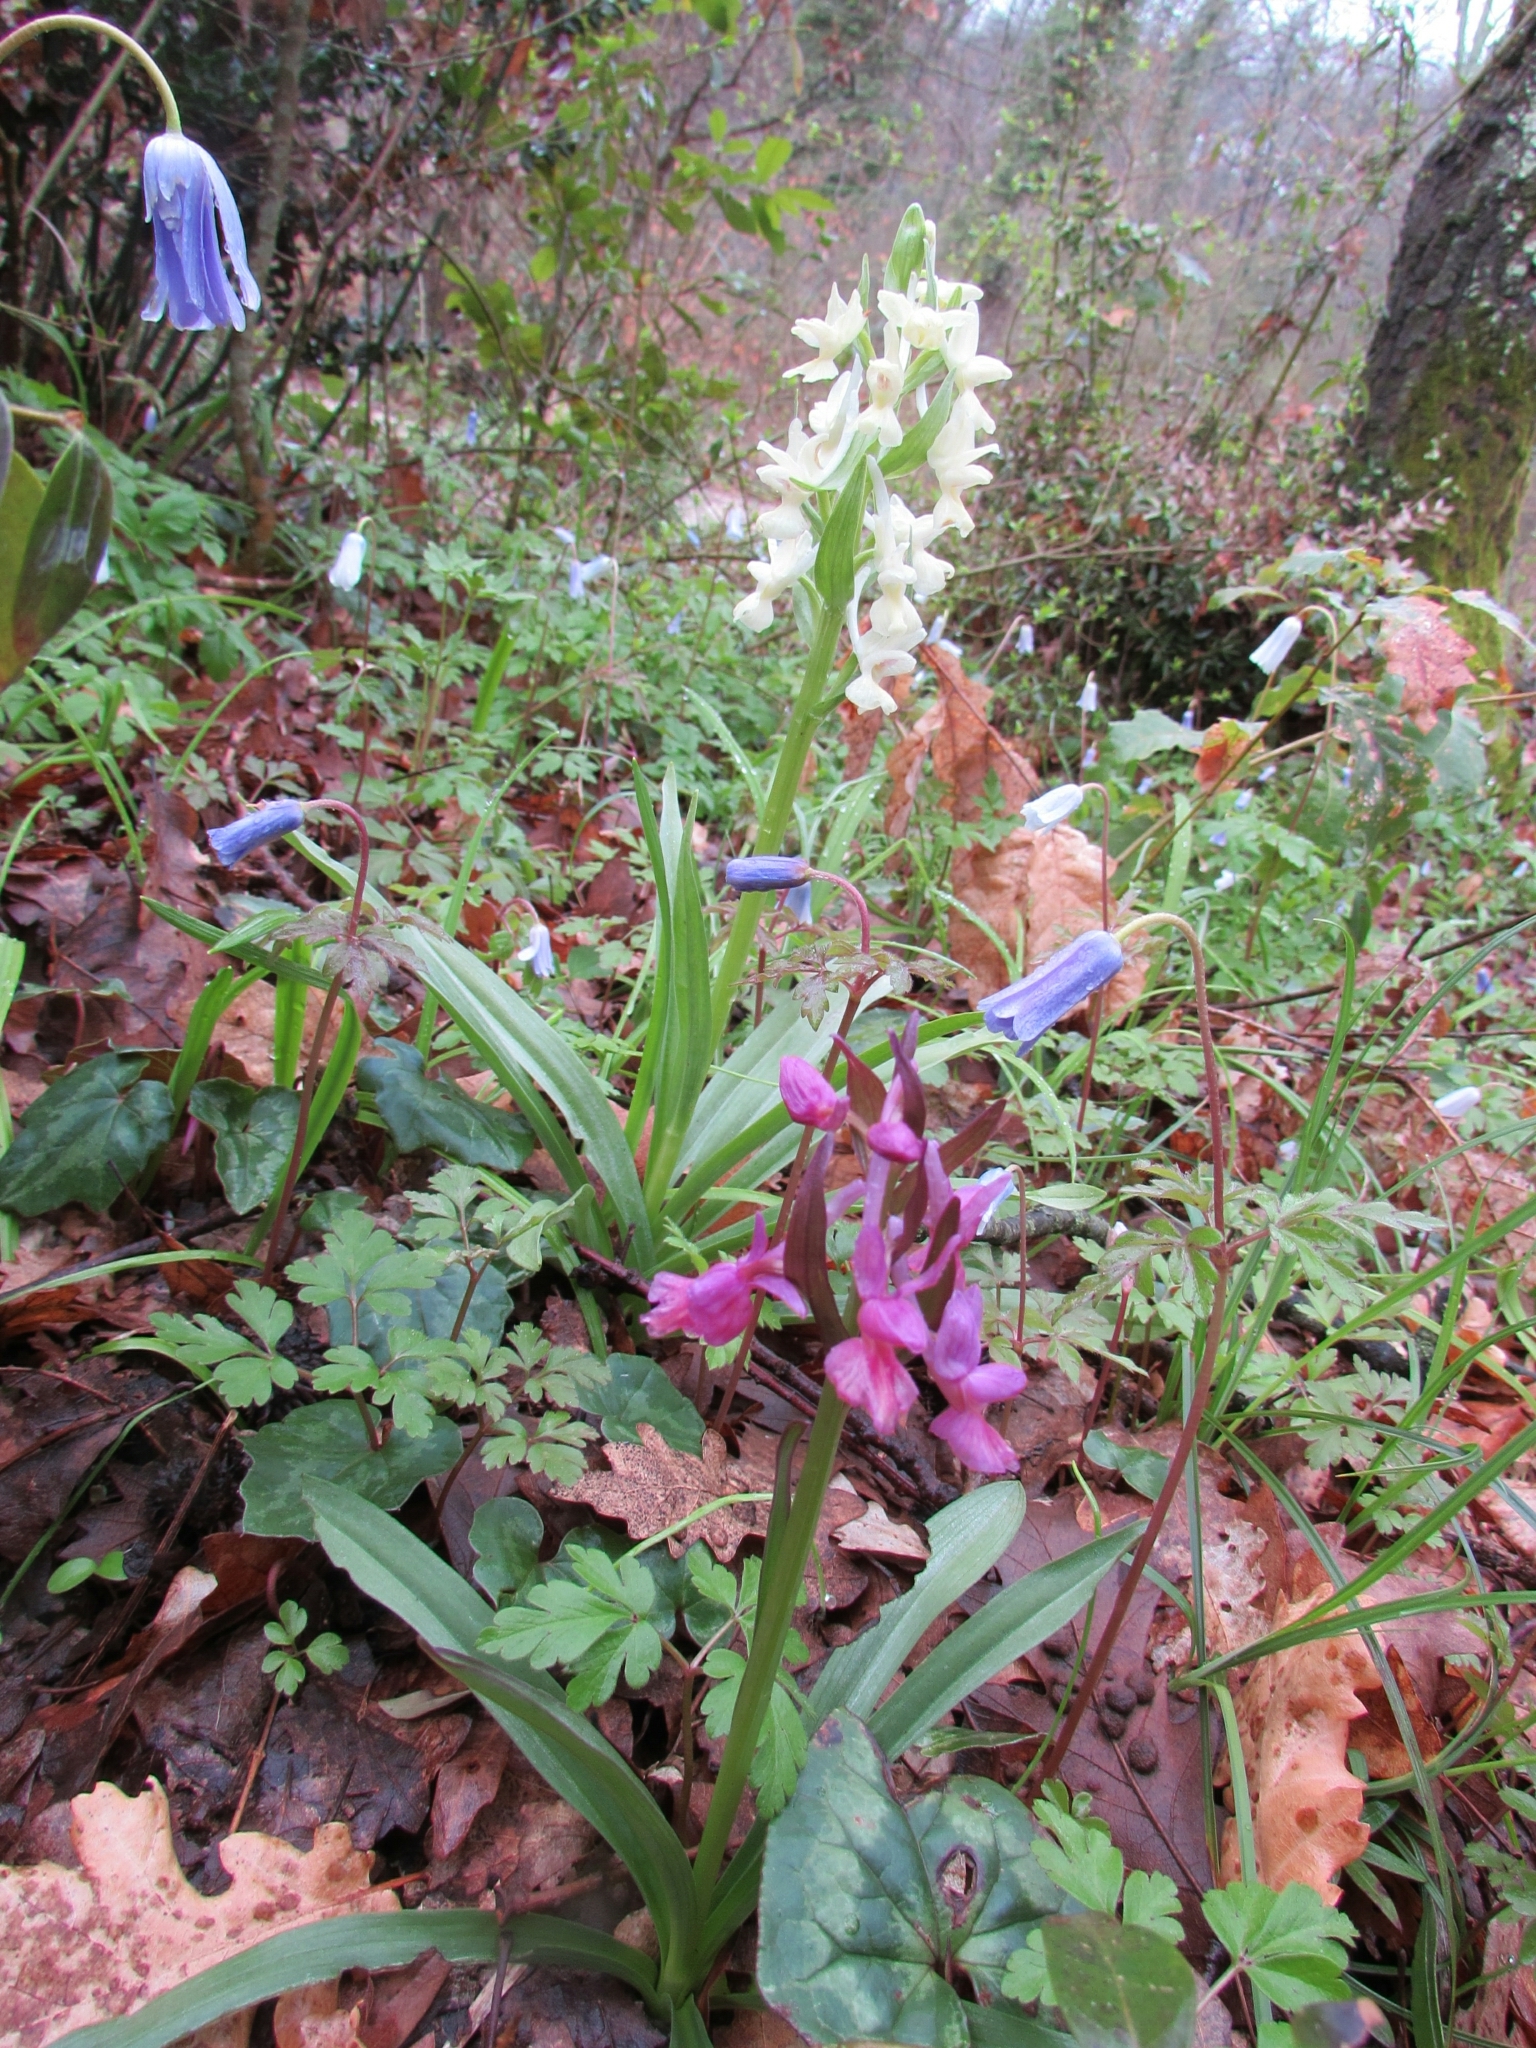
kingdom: Plantae
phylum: Tracheophyta
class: Liliopsida
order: Asparagales
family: Orchidaceae
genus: Dactylorhiza
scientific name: Dactylorhiza romana
